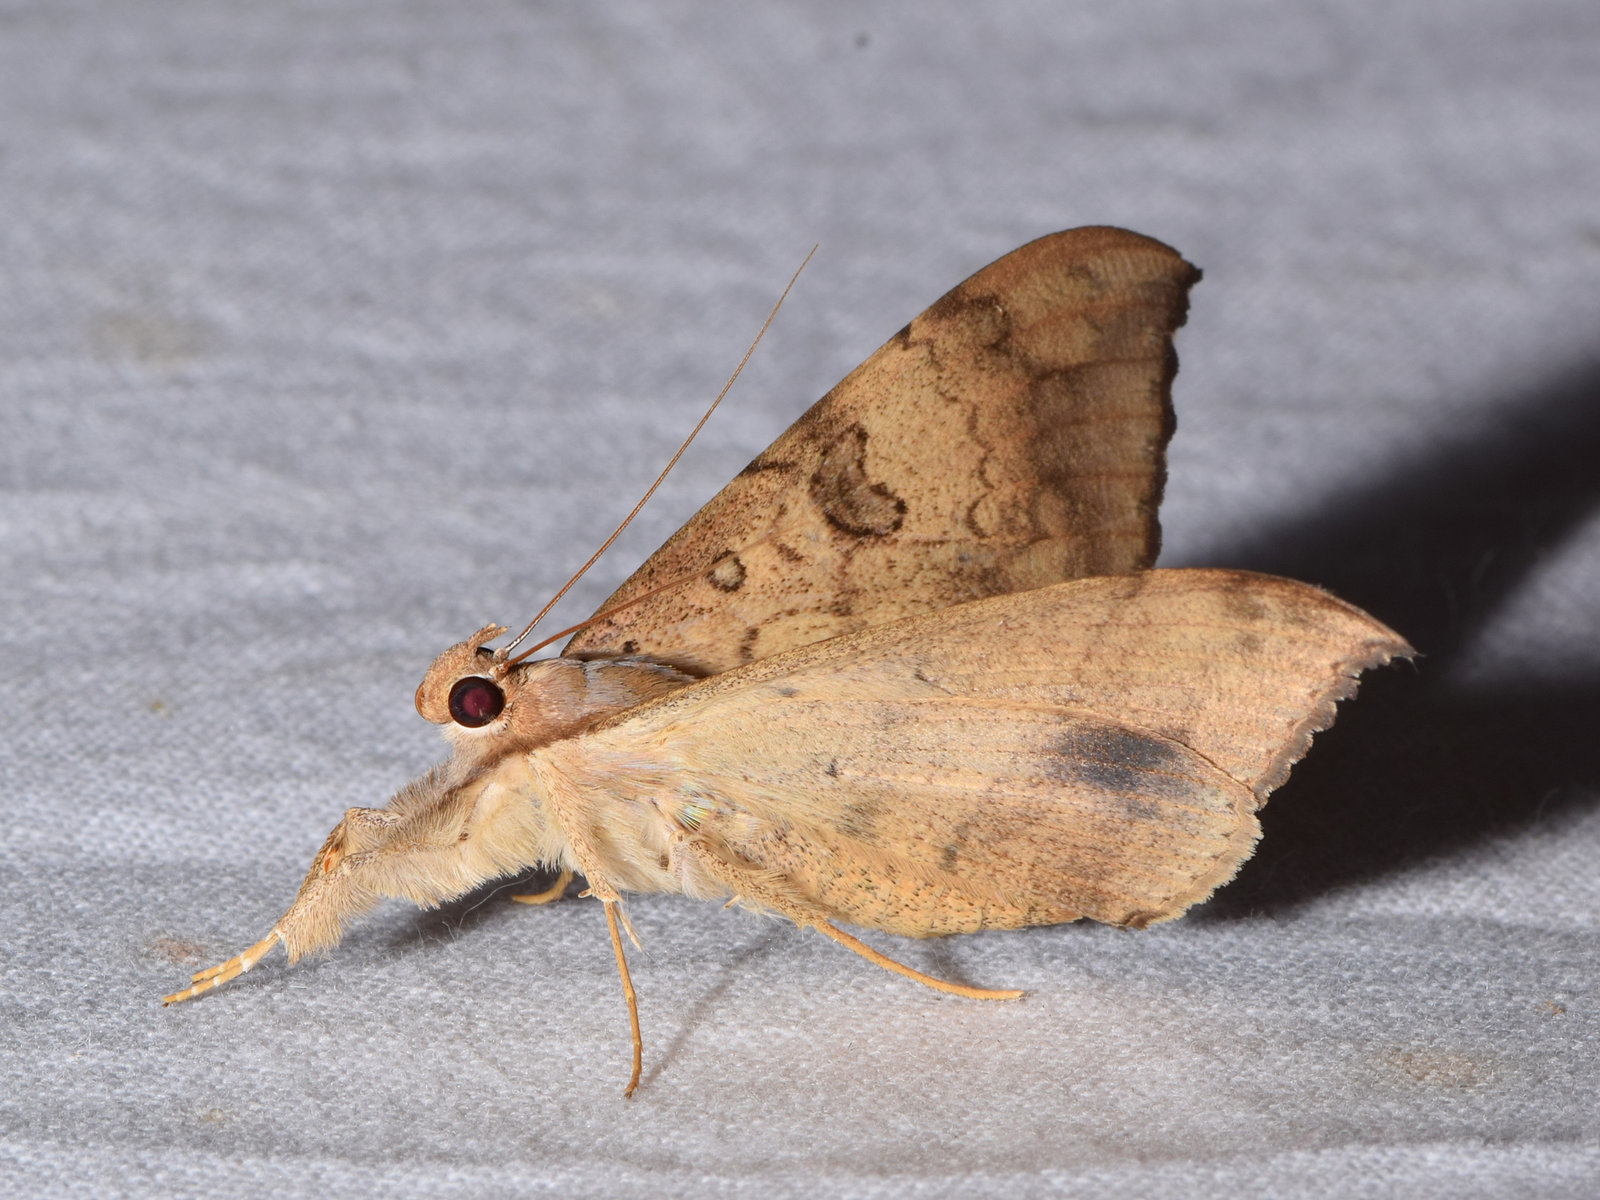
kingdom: Animalia
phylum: Arthropoda
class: Insecta
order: Lepidoptera
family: Erebidae
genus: Oxyodes
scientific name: Oxyodes scrobiculata
